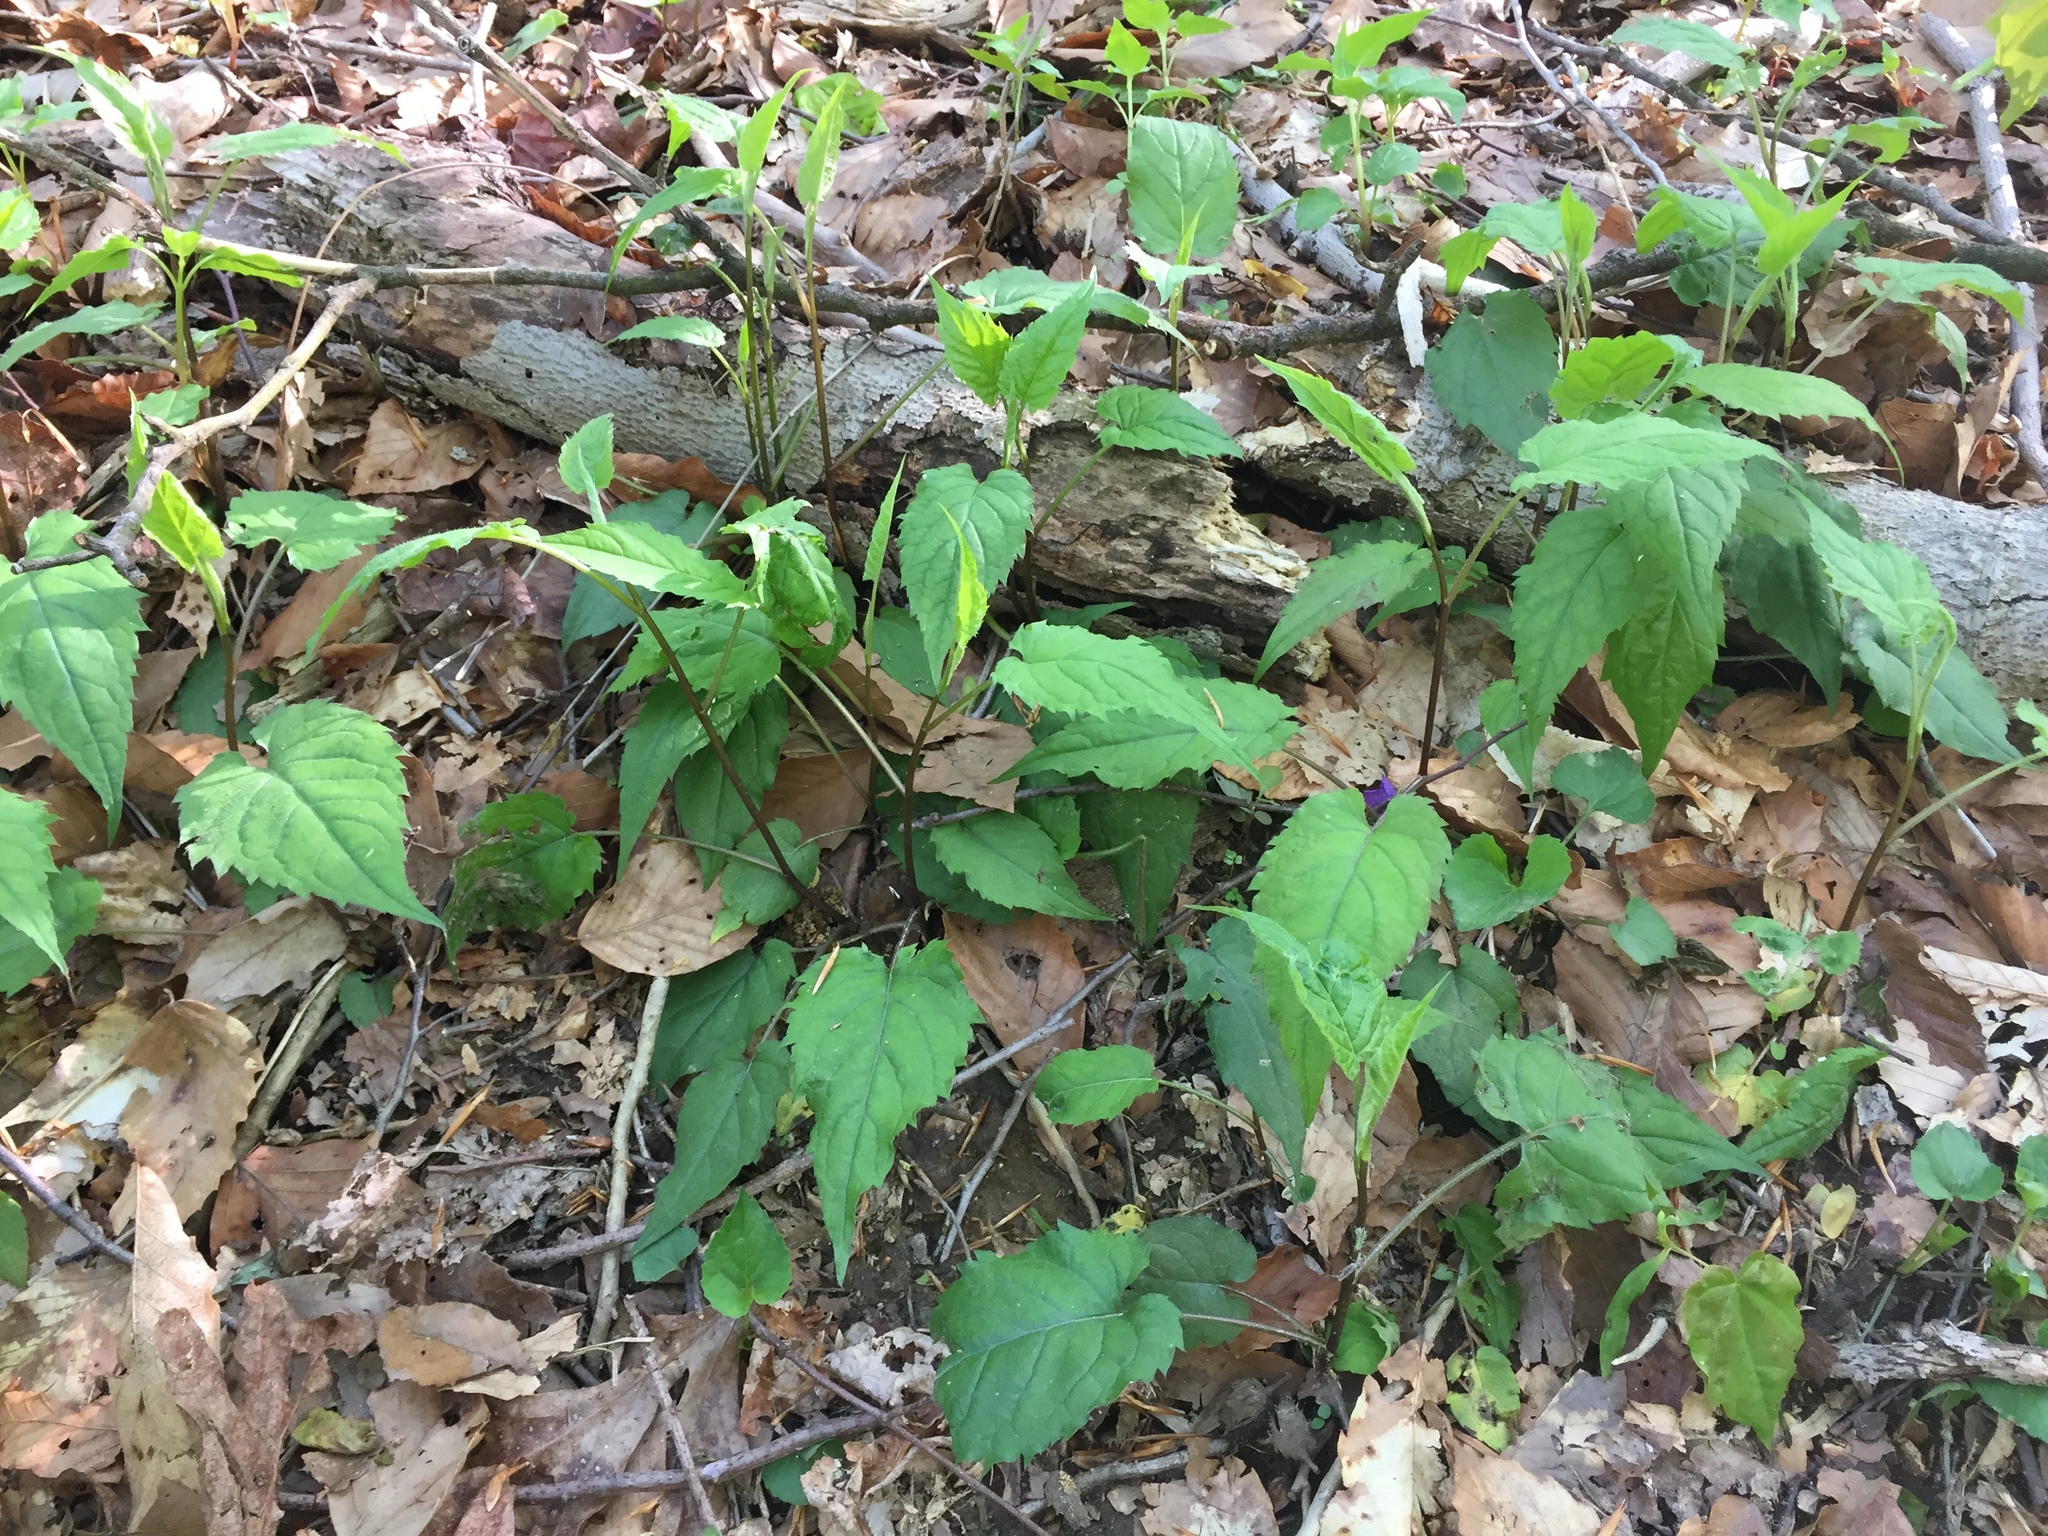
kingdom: Plantae
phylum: Tracheophyta
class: Magnoliopsida
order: Asterales
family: Asteraceae
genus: Eurybia
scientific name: Eurybia divaricata
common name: White wood aster
